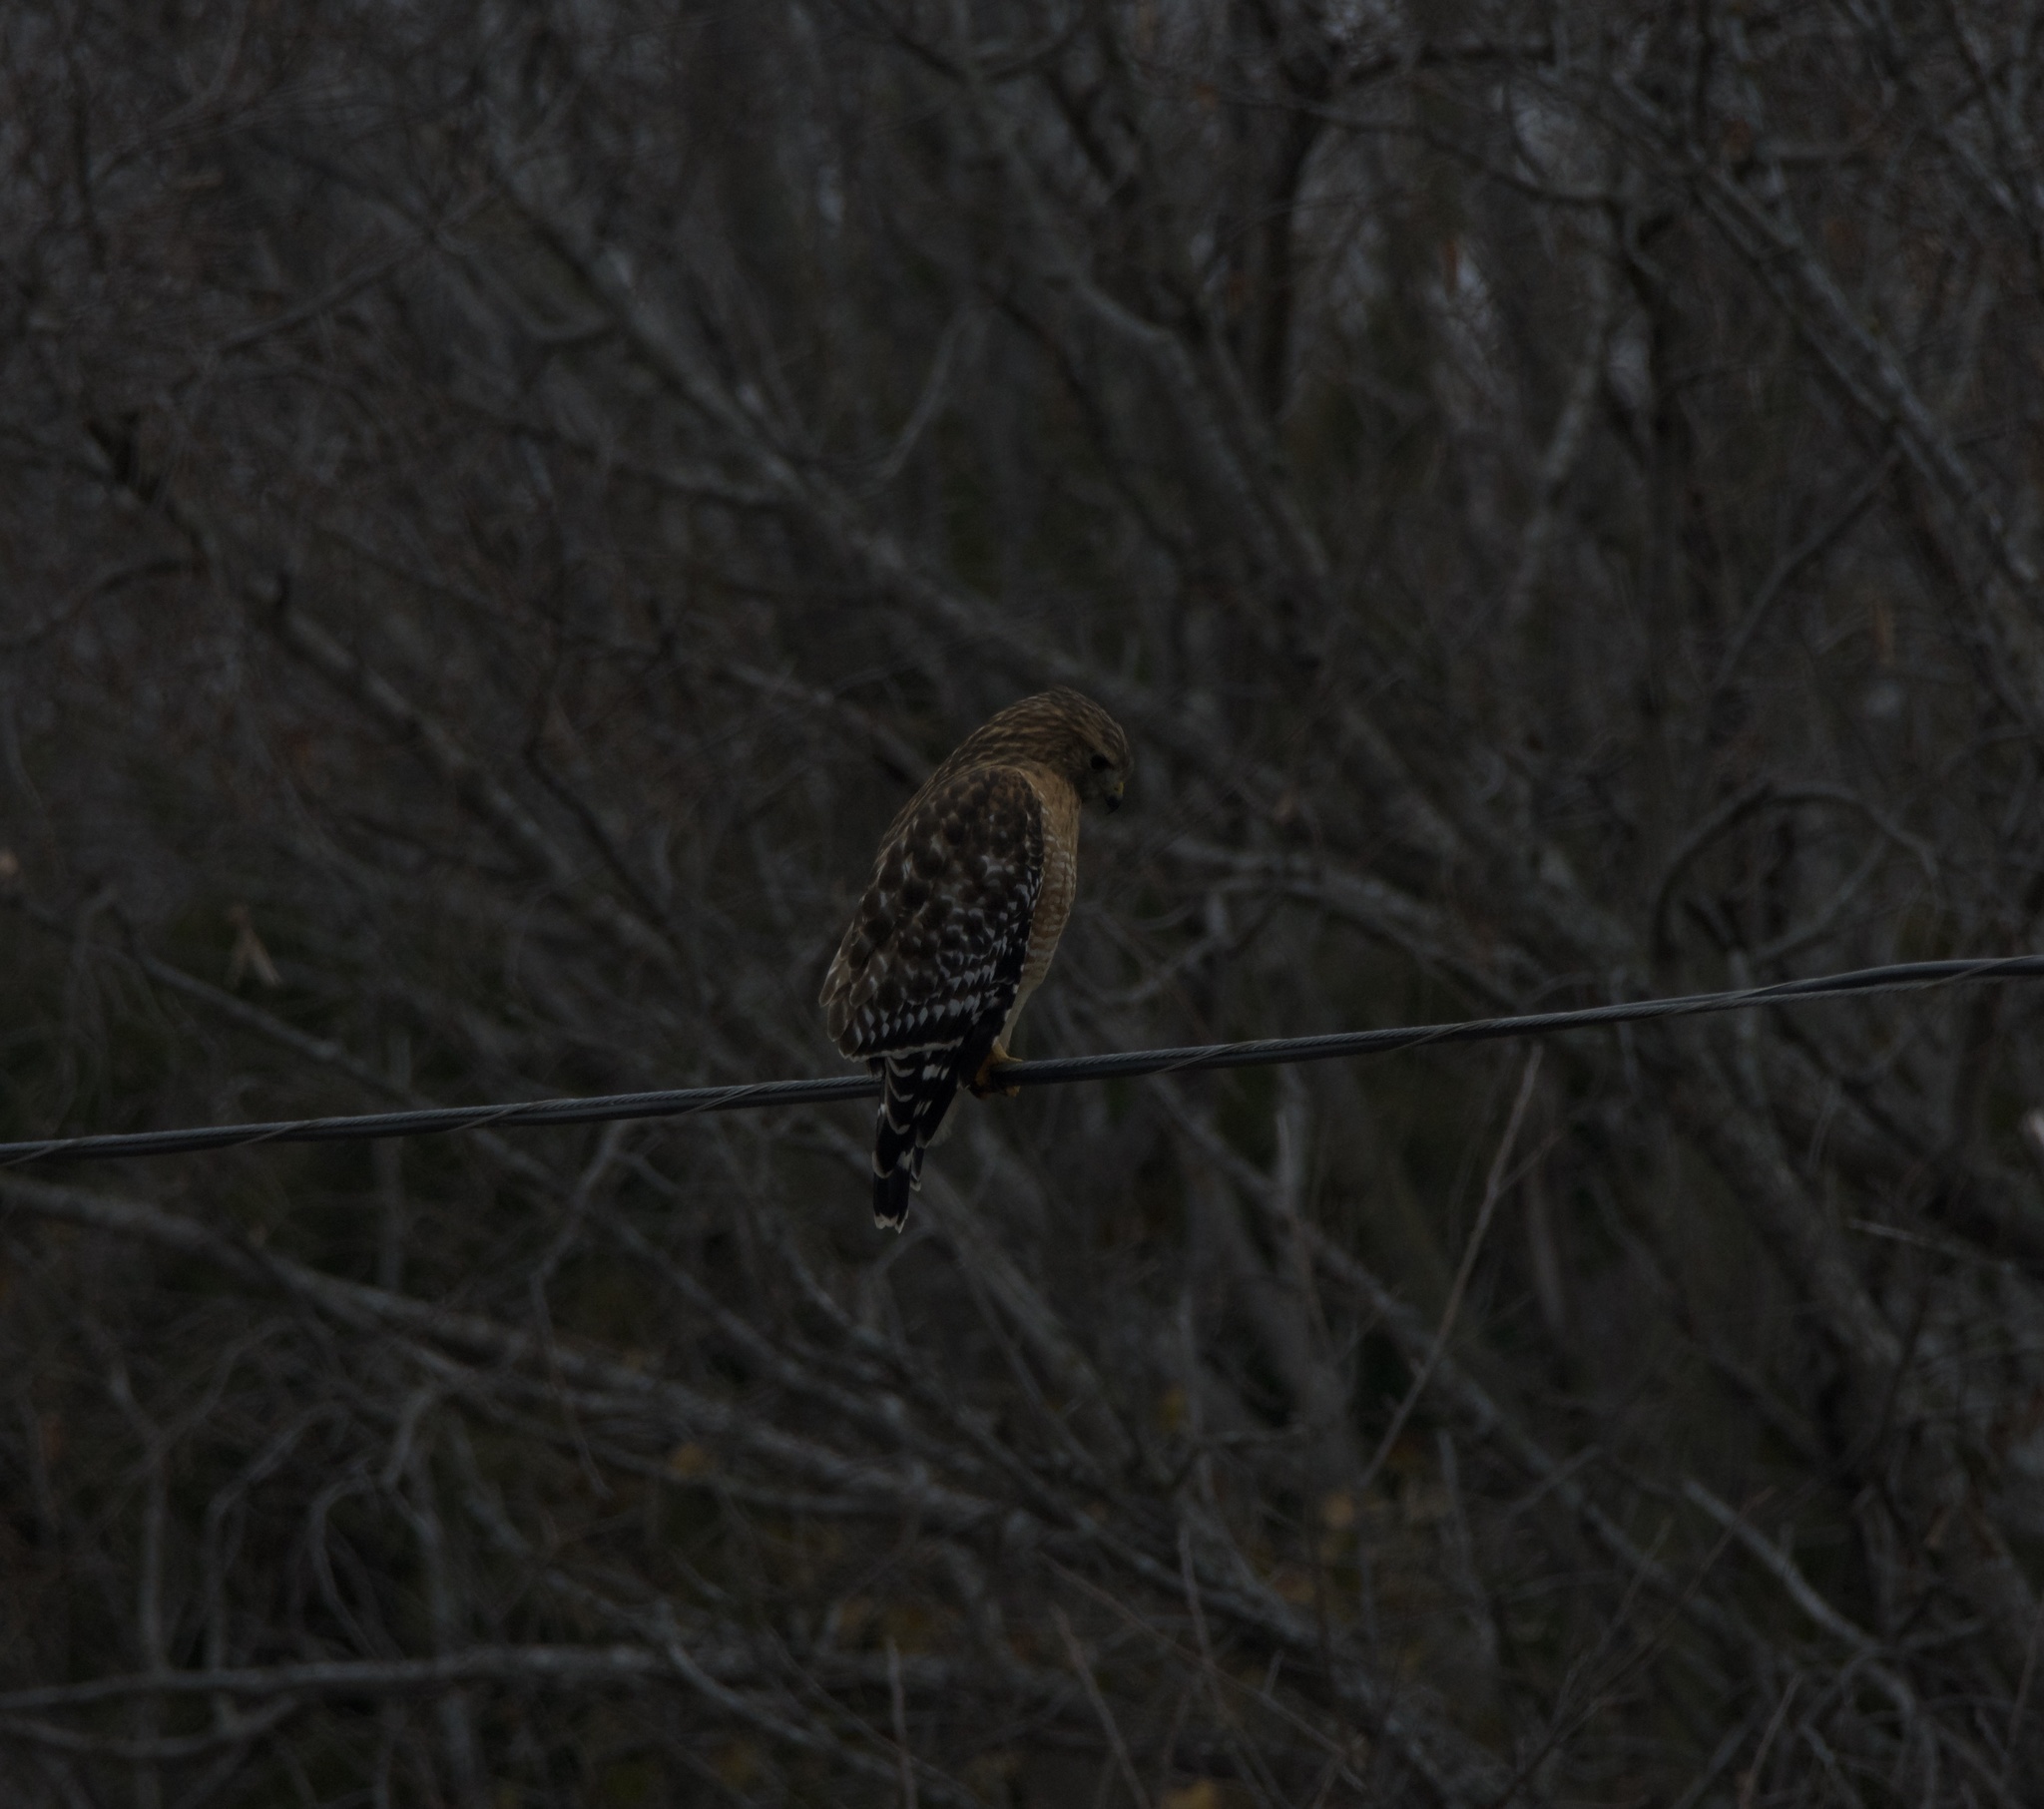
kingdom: Animalia
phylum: Chordata
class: Aves
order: Accipitriformes
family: Accipitridae
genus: Buteo
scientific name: Buteo lineatus
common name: Red-shouldered hawk
